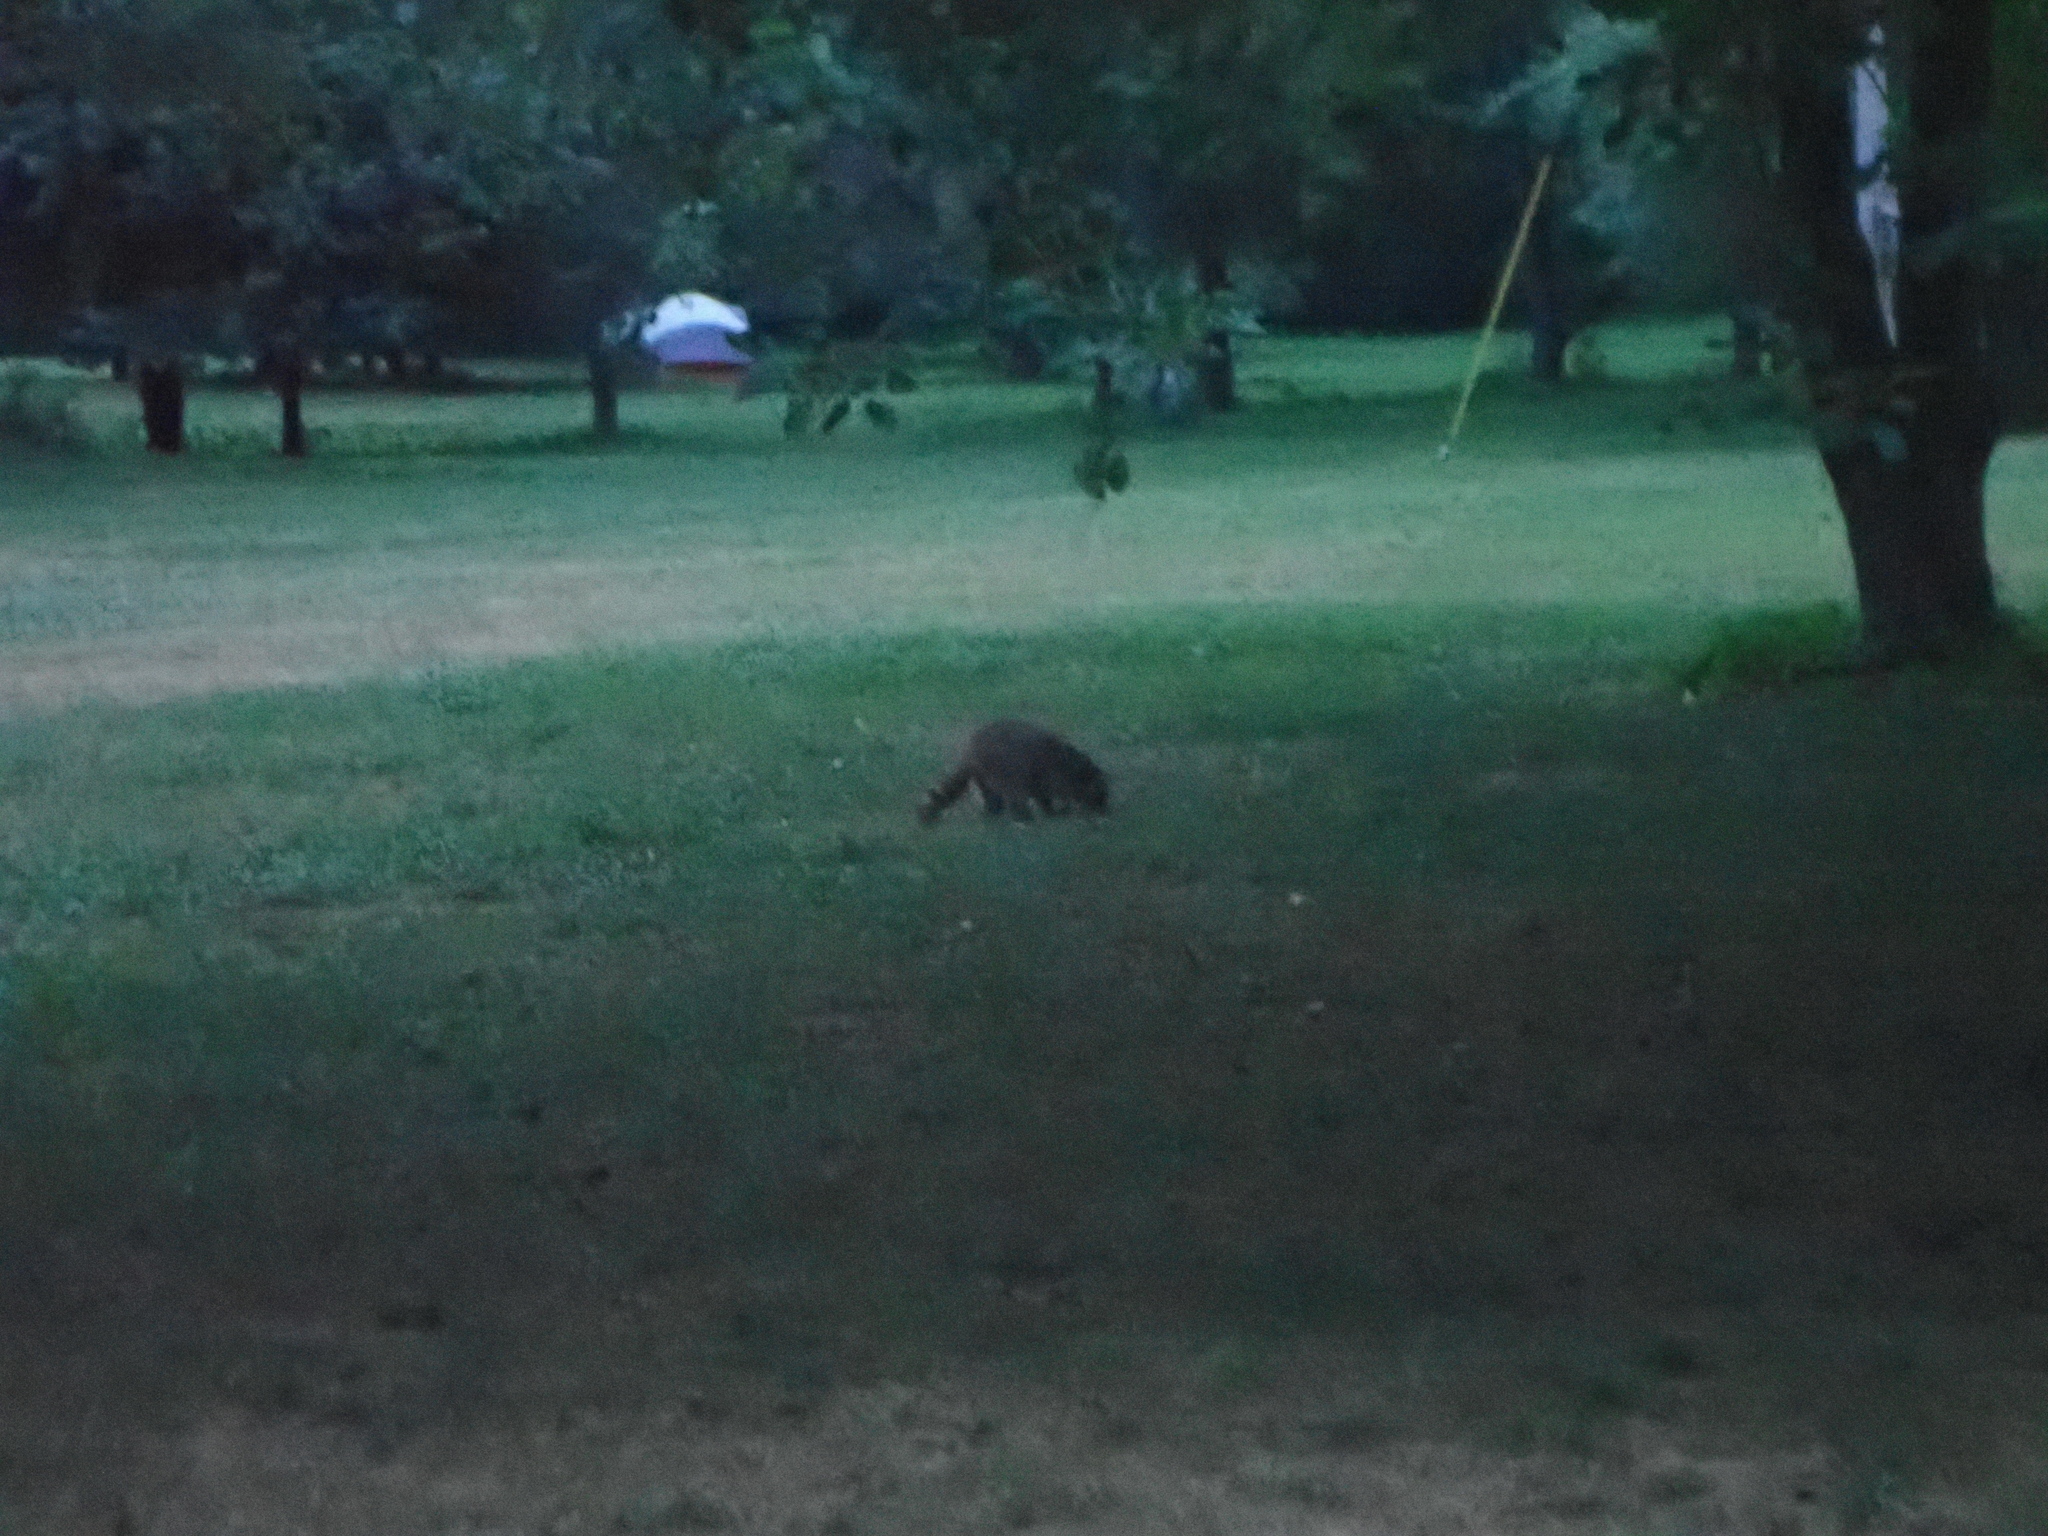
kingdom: Animalia
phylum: Chordata
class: Mammalia
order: Carnivora
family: Procyonidae
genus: Procyon
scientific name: Procyon lotor
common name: Raccoon
